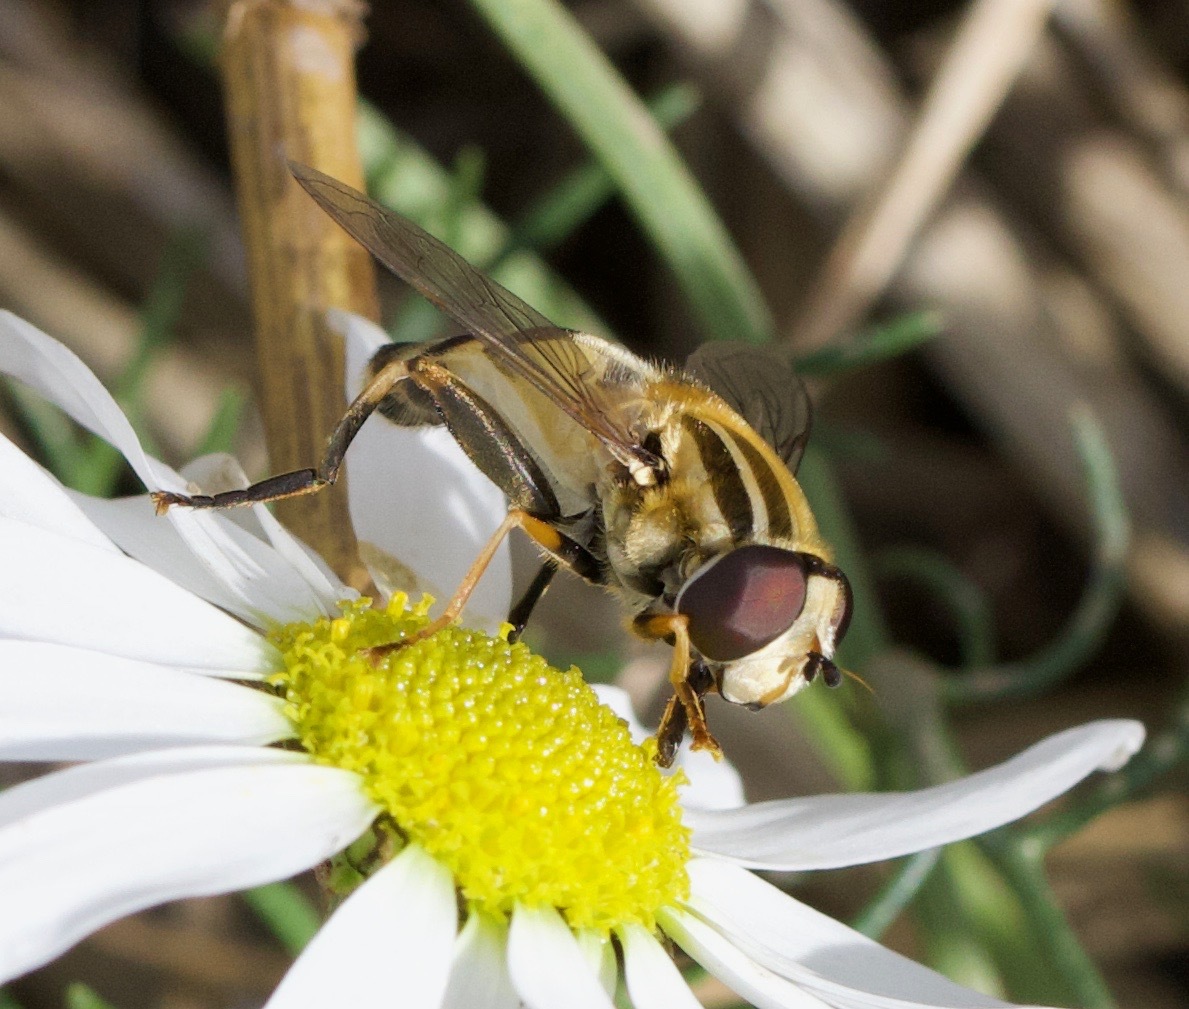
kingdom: Animalia
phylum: Arthropoda
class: Insecta
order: Diptera
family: Syrphidae
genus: Helophilus
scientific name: Helophilus trivittatus
